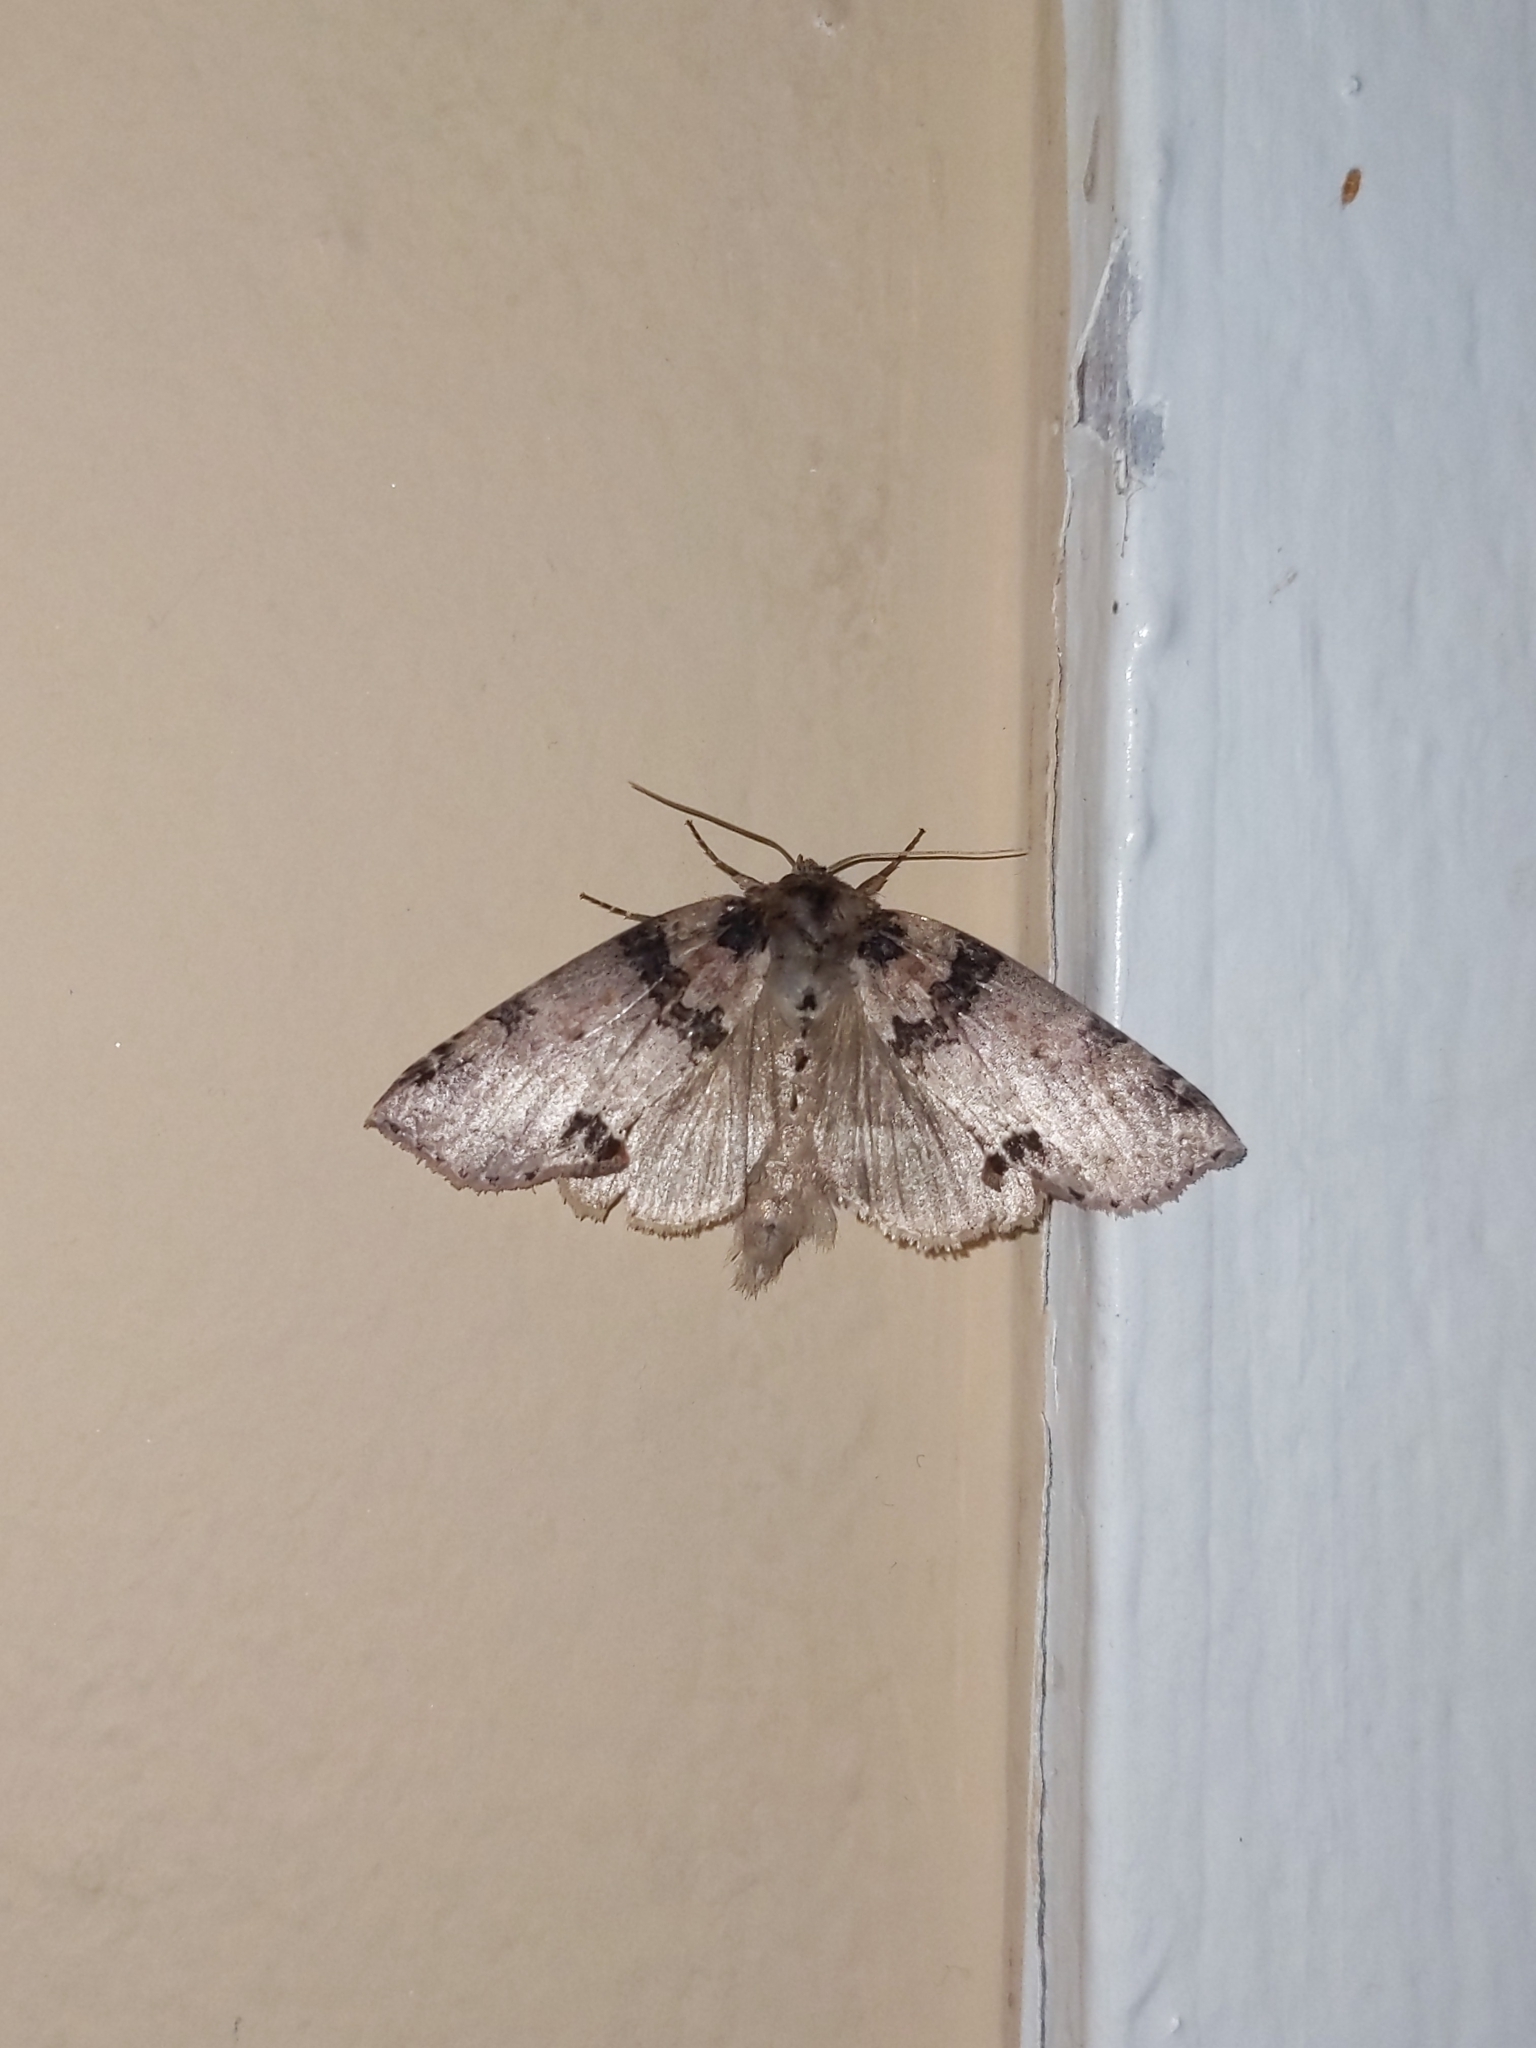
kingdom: Animalia
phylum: Arthropoda
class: Insecta
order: Lepidoptera
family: Drepanidae
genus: Pseudothyatira
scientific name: Pseudothyatira cymatophoroides
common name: Tufted thyatirid moth
